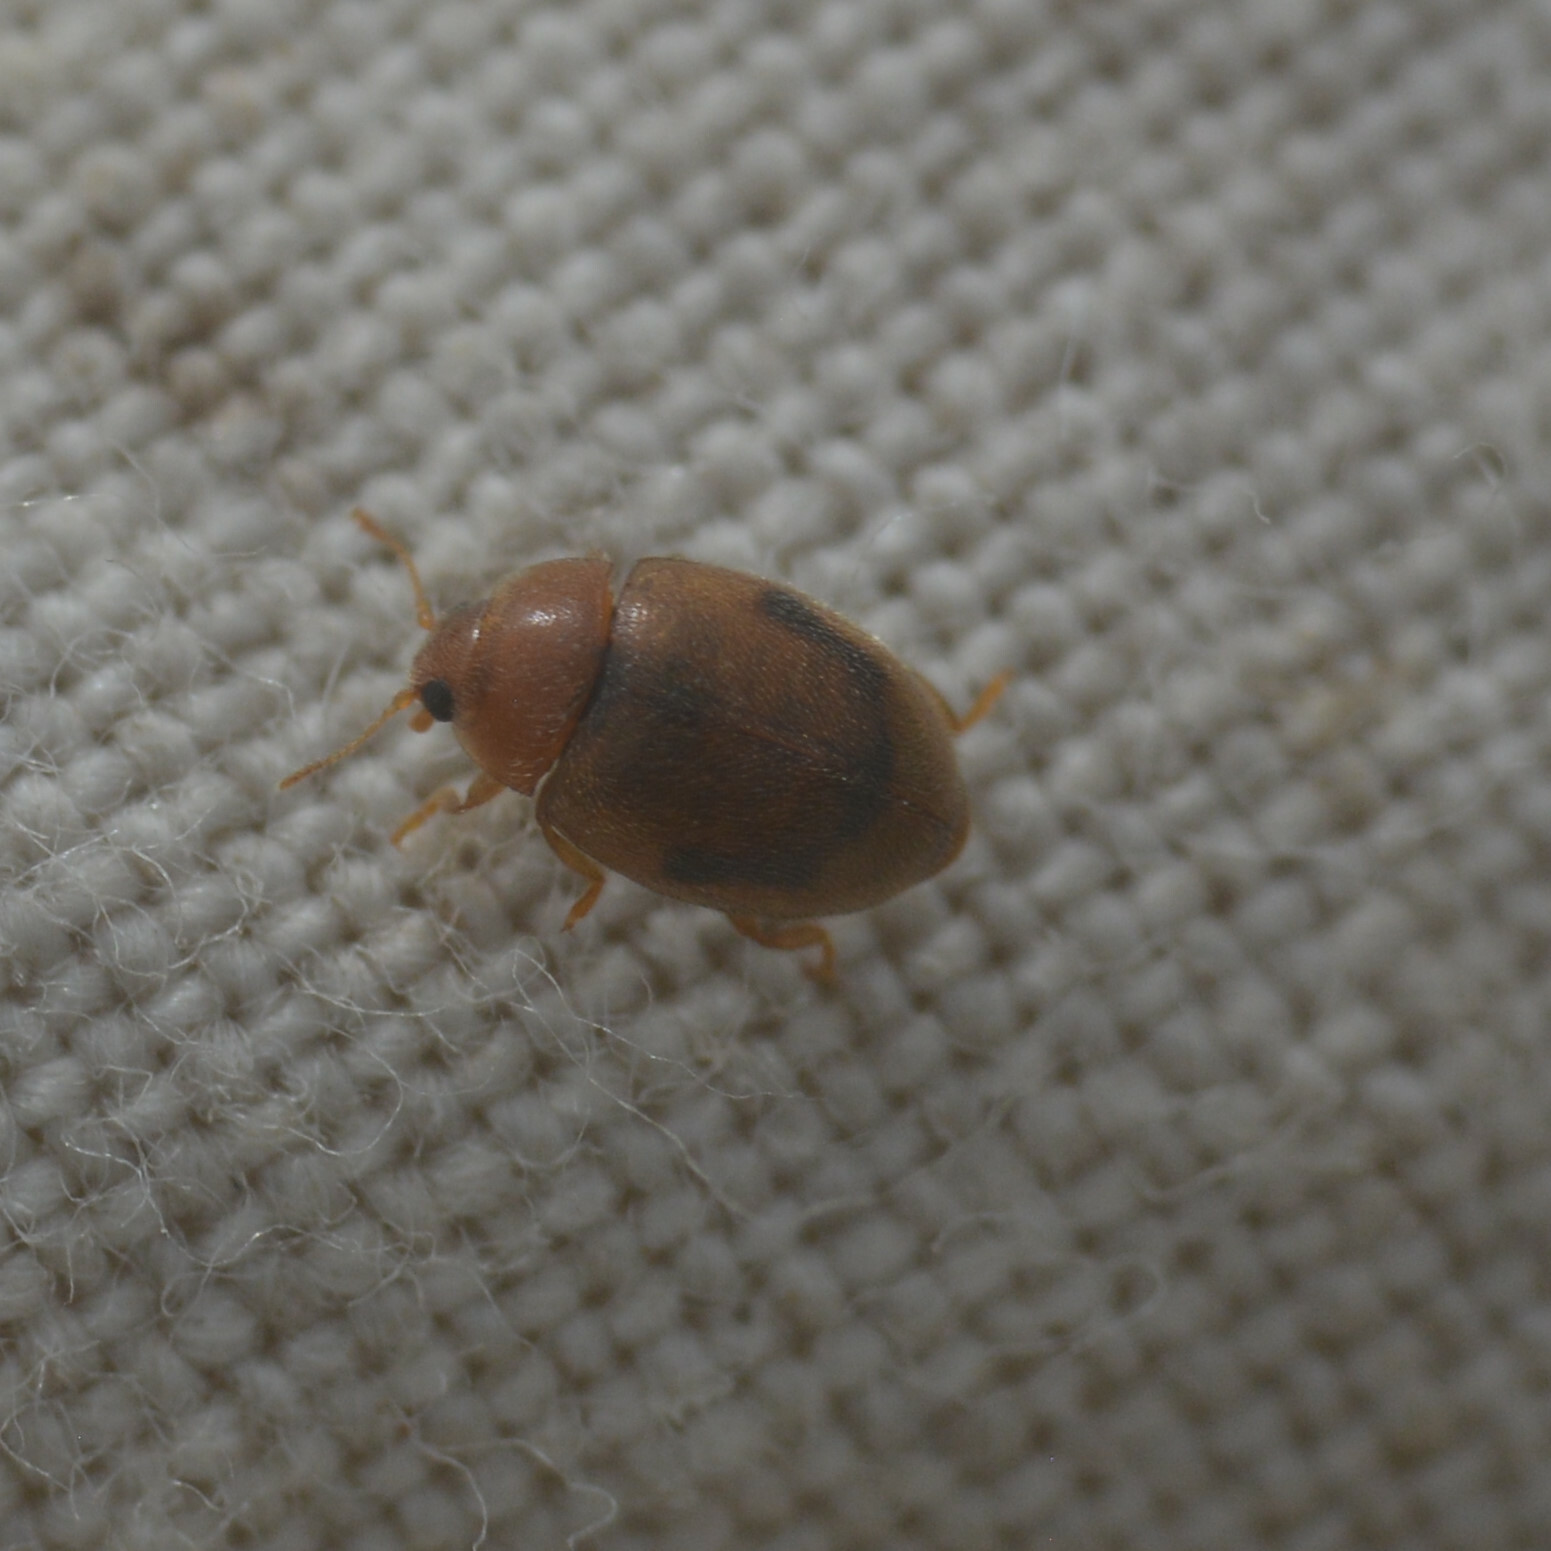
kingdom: Animalia
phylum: Arthropoda
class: Insecta
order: Coleoptera
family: Coccinellidae
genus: Rhyzobius
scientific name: Rhyzobius litura
